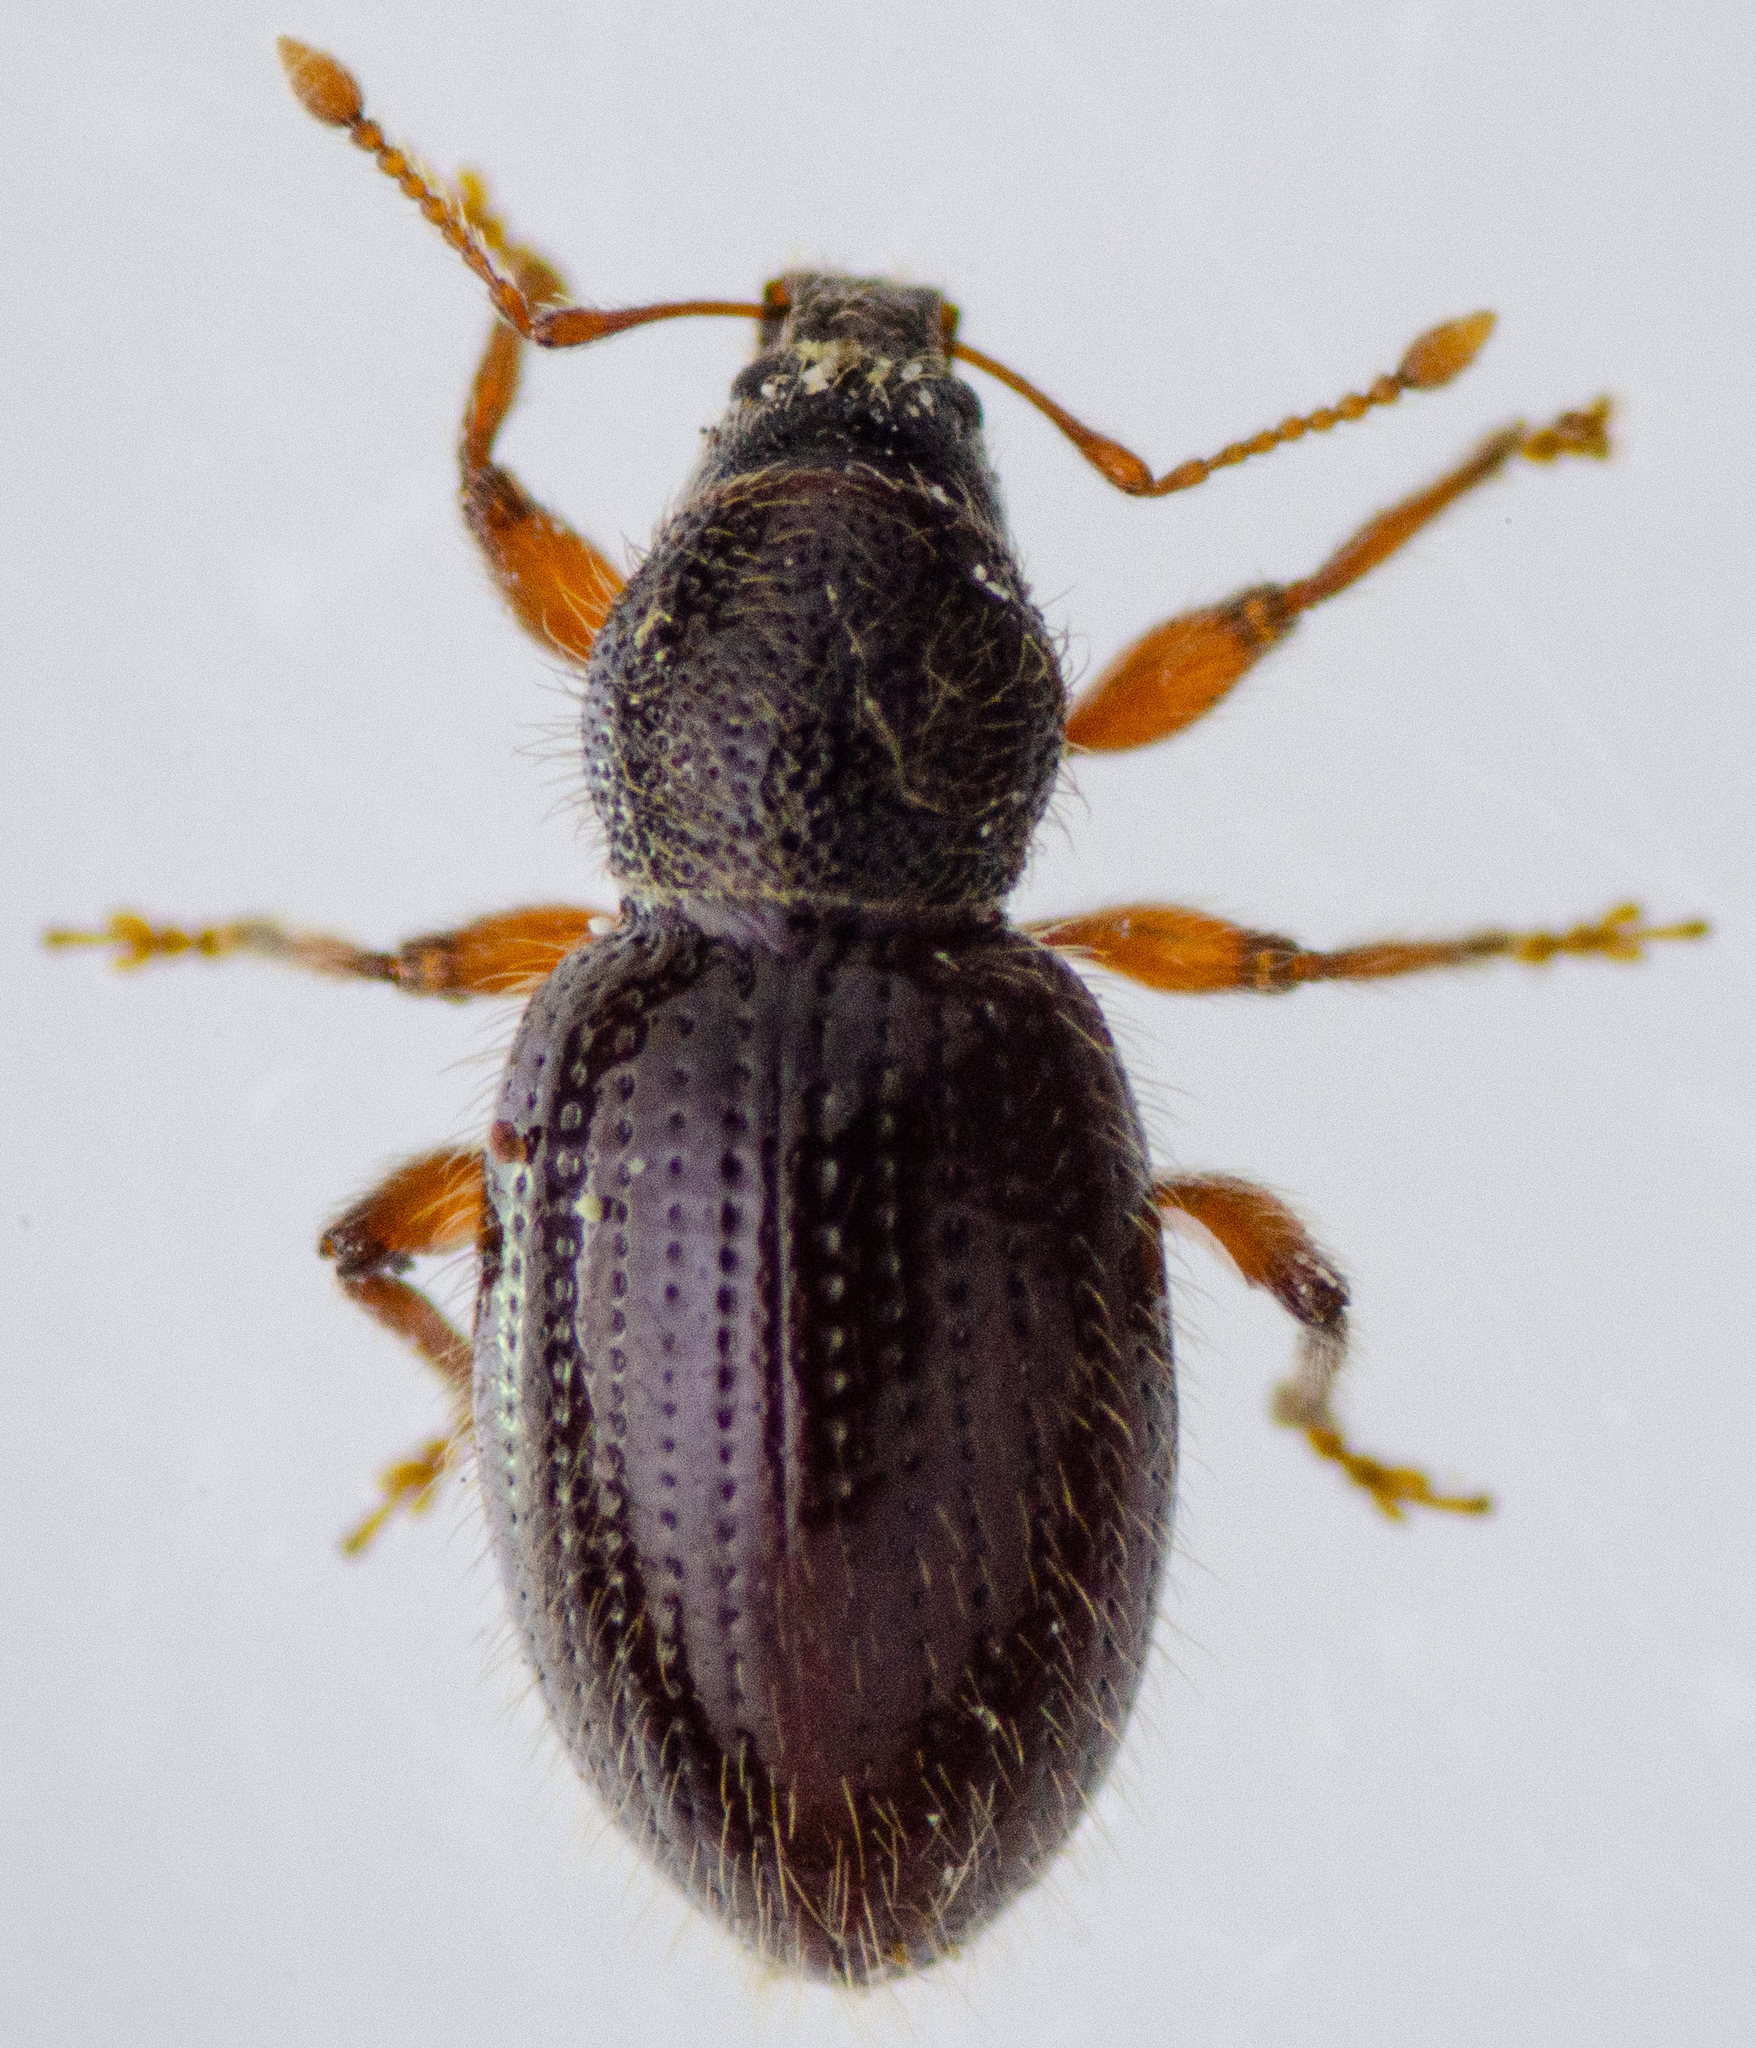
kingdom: Animalia
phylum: Arthropoda
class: Insecta
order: Coleoptera
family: Curculionidae
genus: Exomias
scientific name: Exomias pellucidus
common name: Hairy spider weevil
